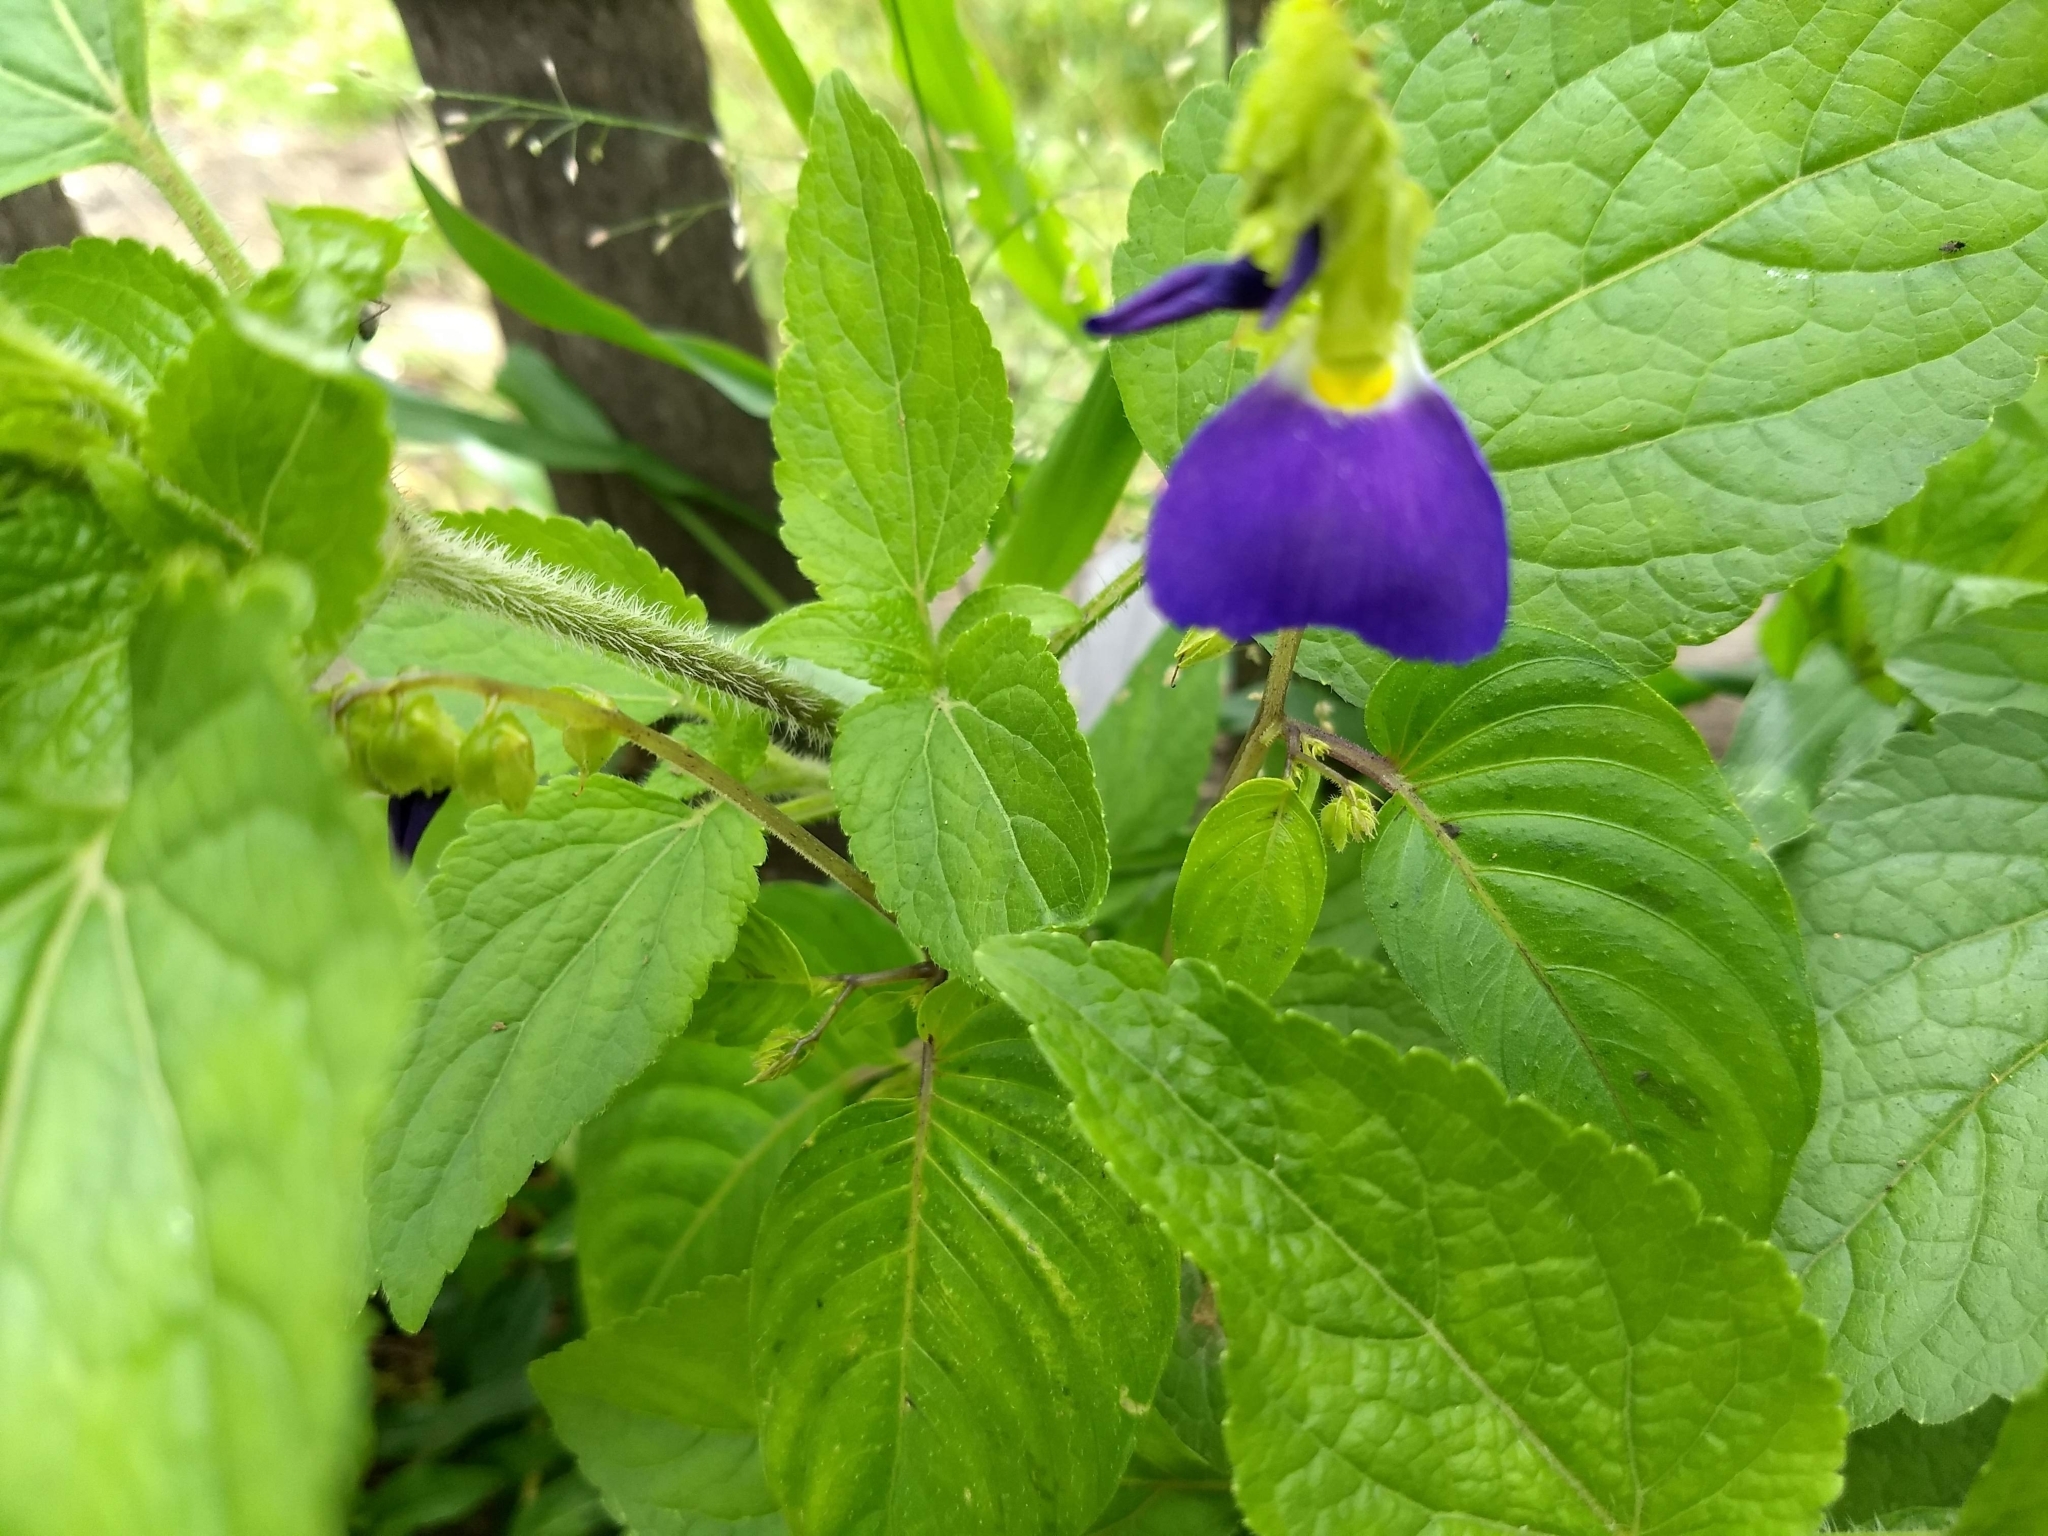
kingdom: Plantae
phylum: Tracheophyta
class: Magnoliopsida
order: Lamiales
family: Gesneriaceae
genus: Rhynchoglossum
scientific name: Rhynchoglossum notonianum
